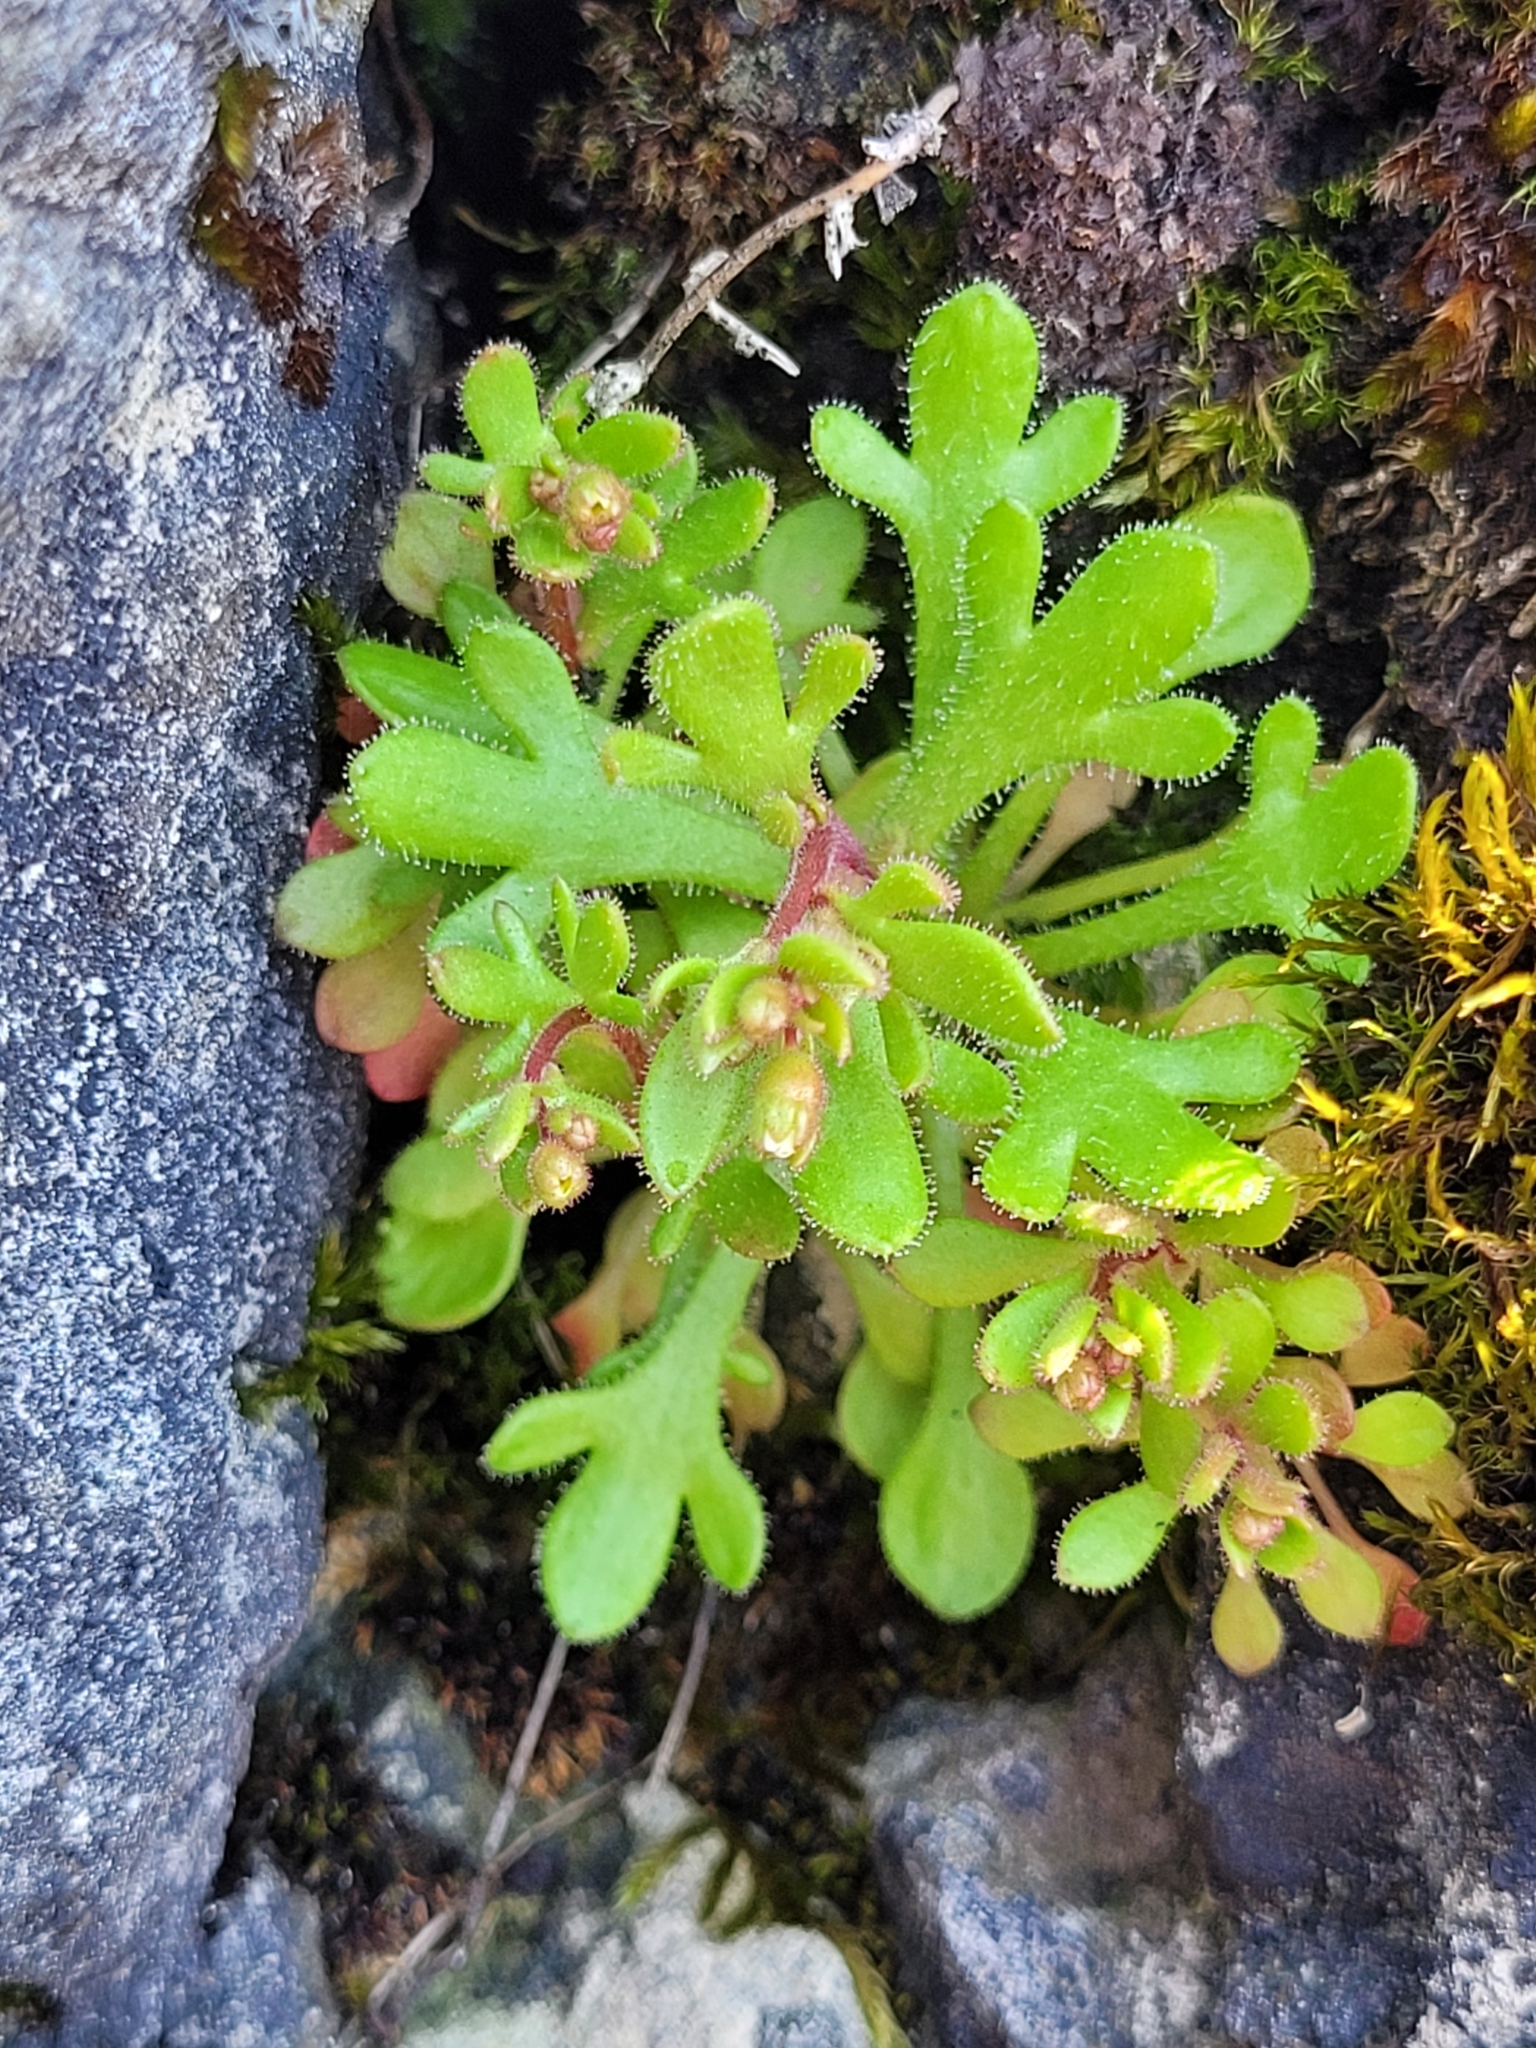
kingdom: Plantae
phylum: Tracheophyta
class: Magnoliopsida
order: Saxifragales
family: Saxifragaceae
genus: Saxifraga
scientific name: Saxifraga tridactylites
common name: Rue-leaved saxifrage
